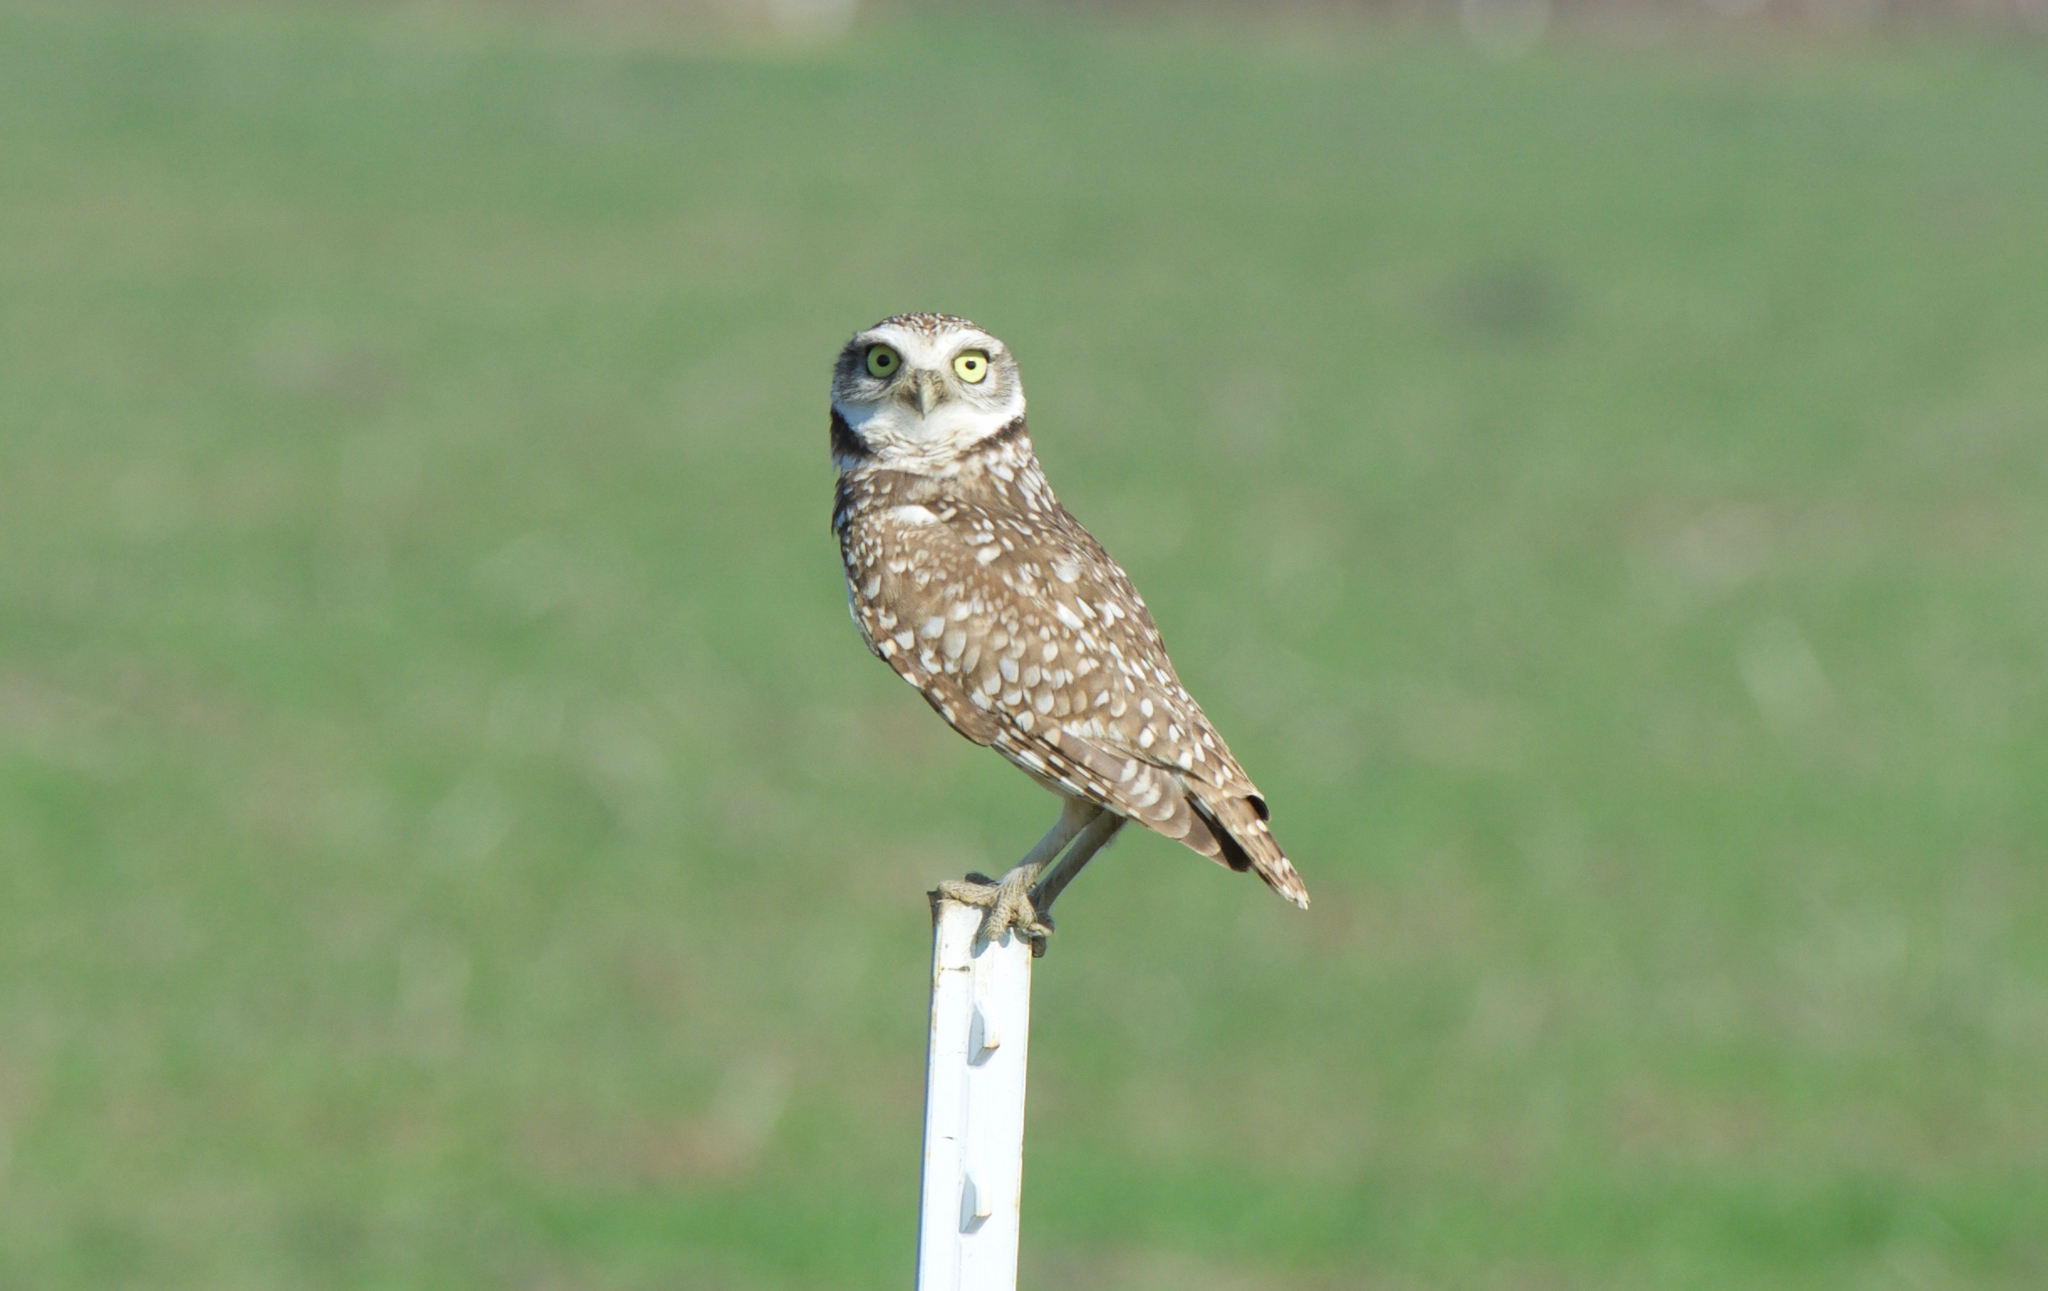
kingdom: Animalia
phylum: Chordata
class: Aves
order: Strigiformes
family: Strigidae
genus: Athene
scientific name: Athene cunicularia
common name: Burrowing owl
